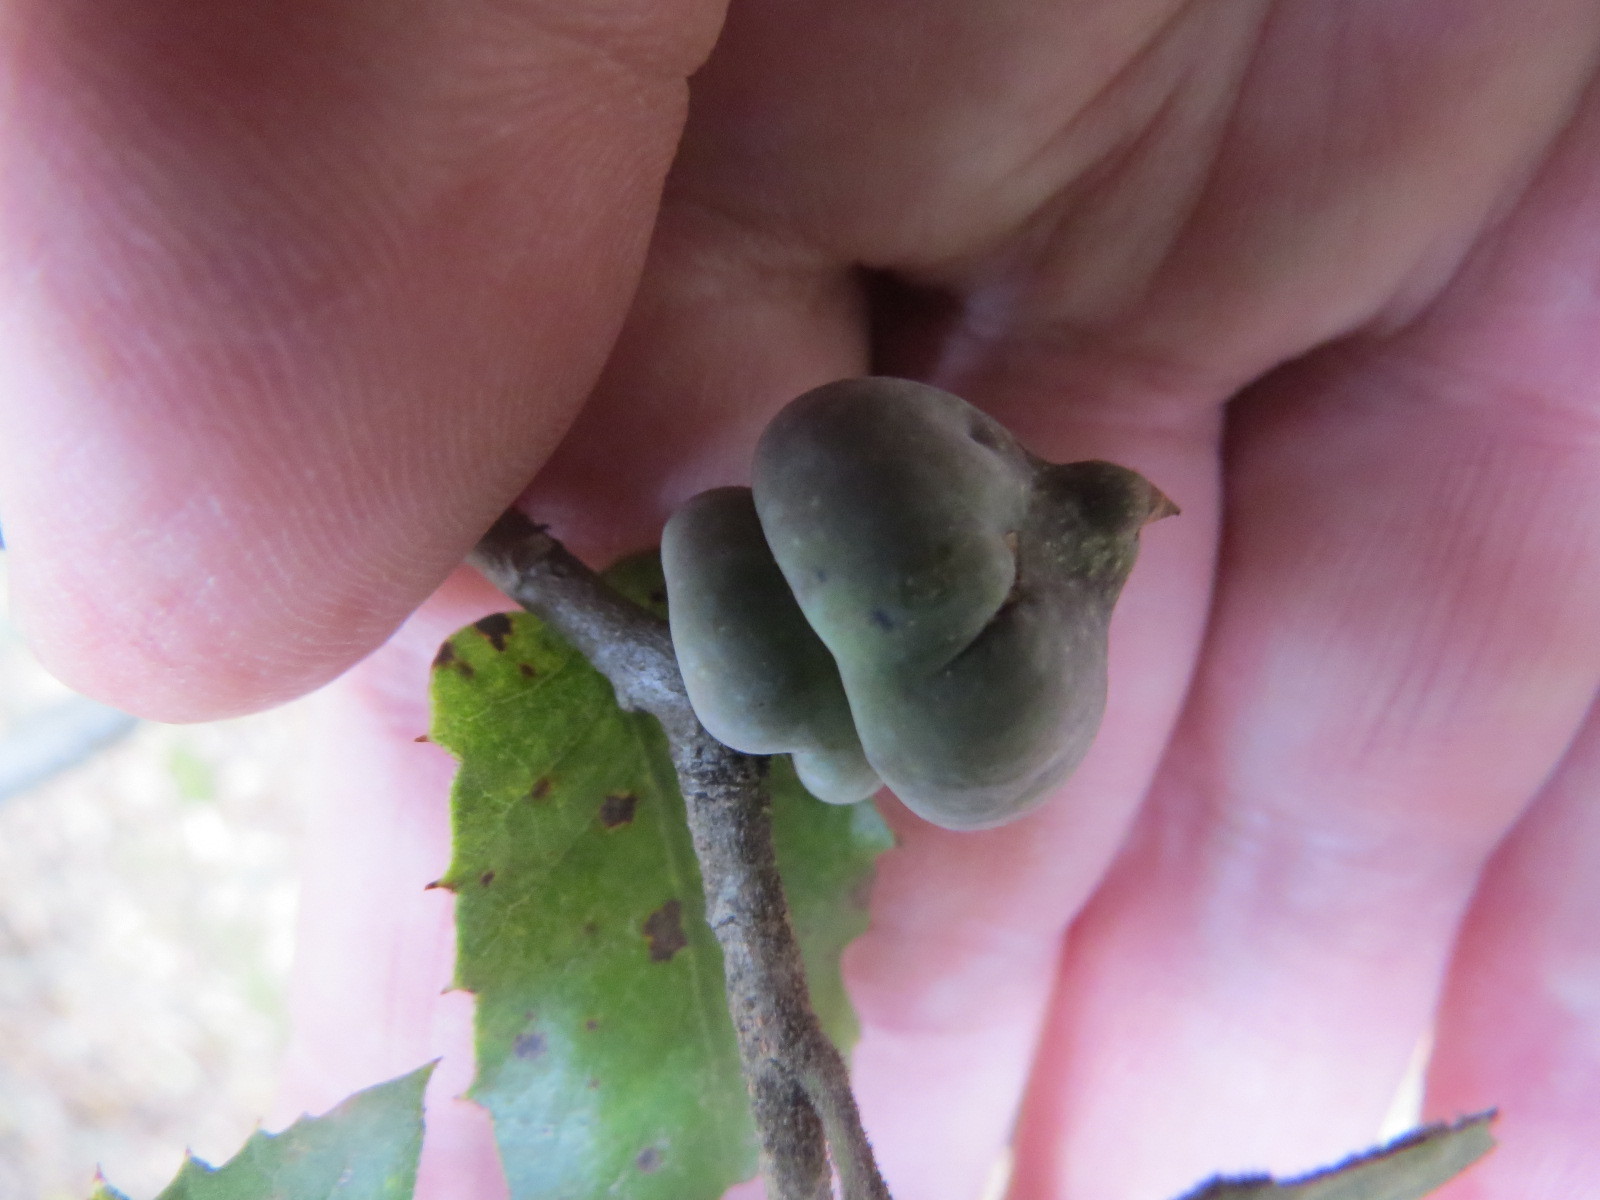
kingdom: Animalia
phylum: Arthropoda
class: Insecta
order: Hymenoptera
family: Cynipidae
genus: Heteroecus
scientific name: Heteroecus
